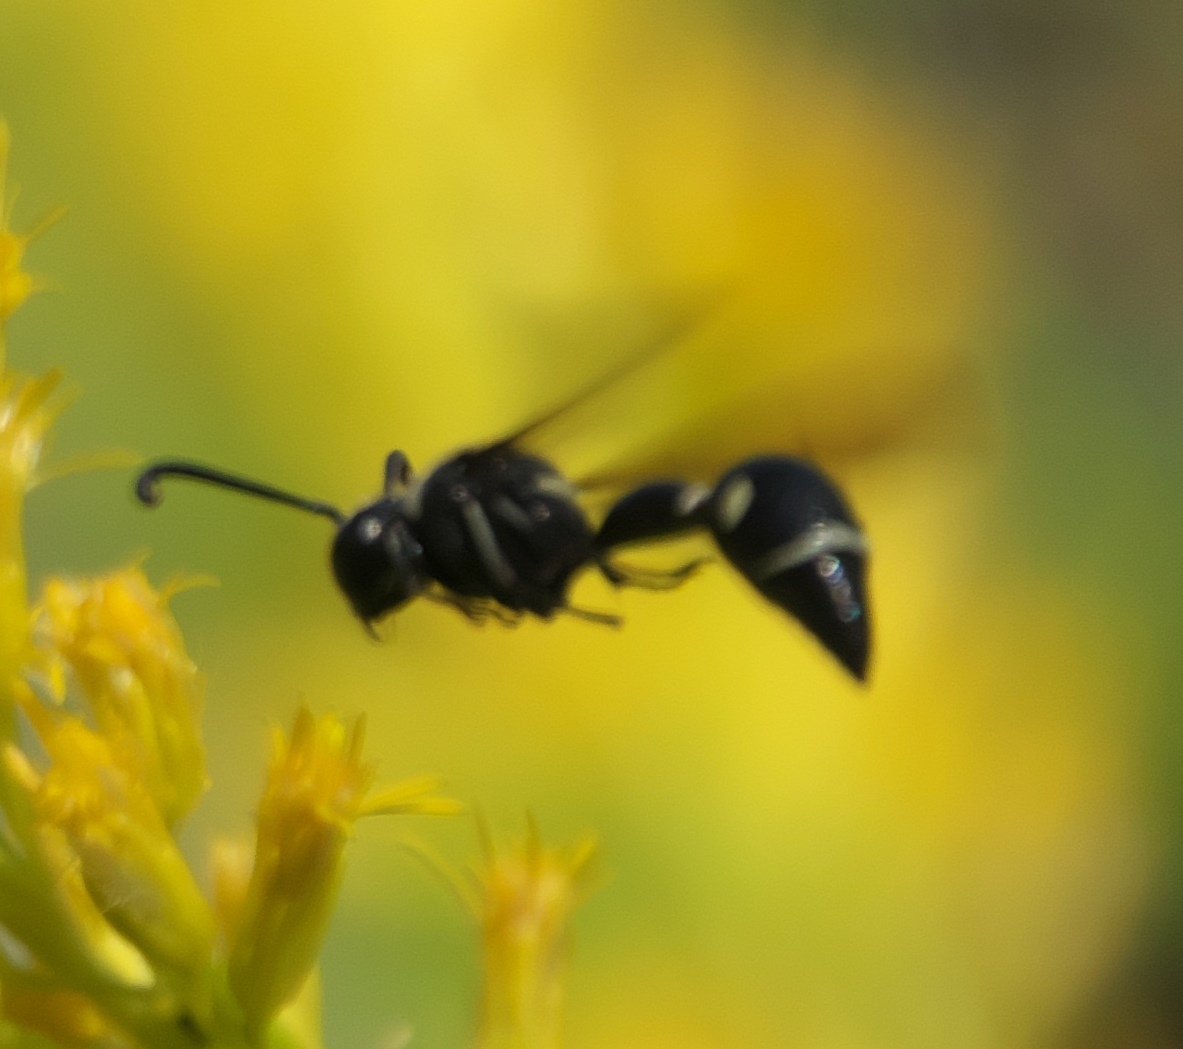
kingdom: Animalia
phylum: Arthropoda
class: Insecta
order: Hymenoptera
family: Vespidae
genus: Eumenes
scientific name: Eumenes fraternus
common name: Fraternal potter wasp
